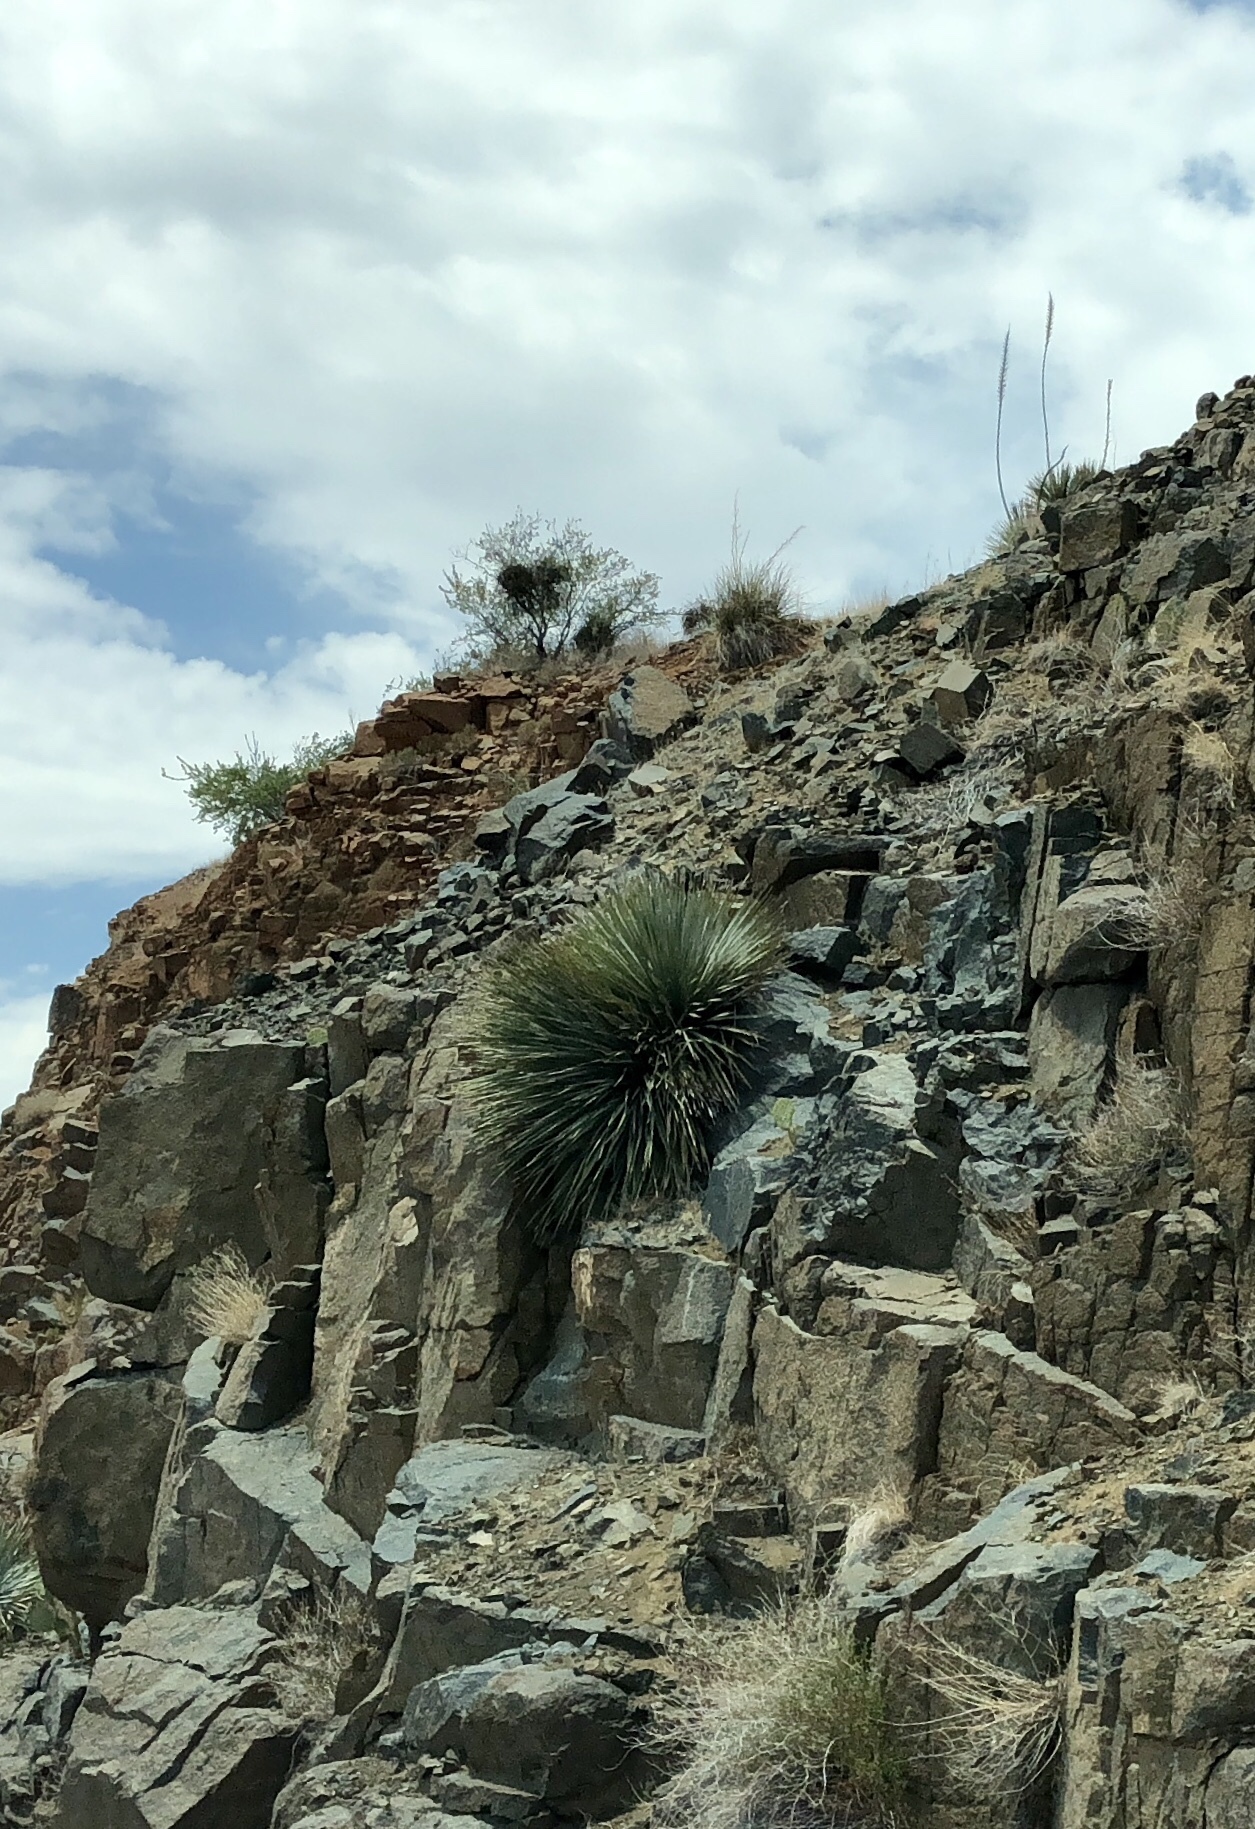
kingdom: Plantae
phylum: Tracheophyta
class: Liliopsida
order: Asparagales
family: Asparagaceae
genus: Dasylirion
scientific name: Dasylirion wheeleri
